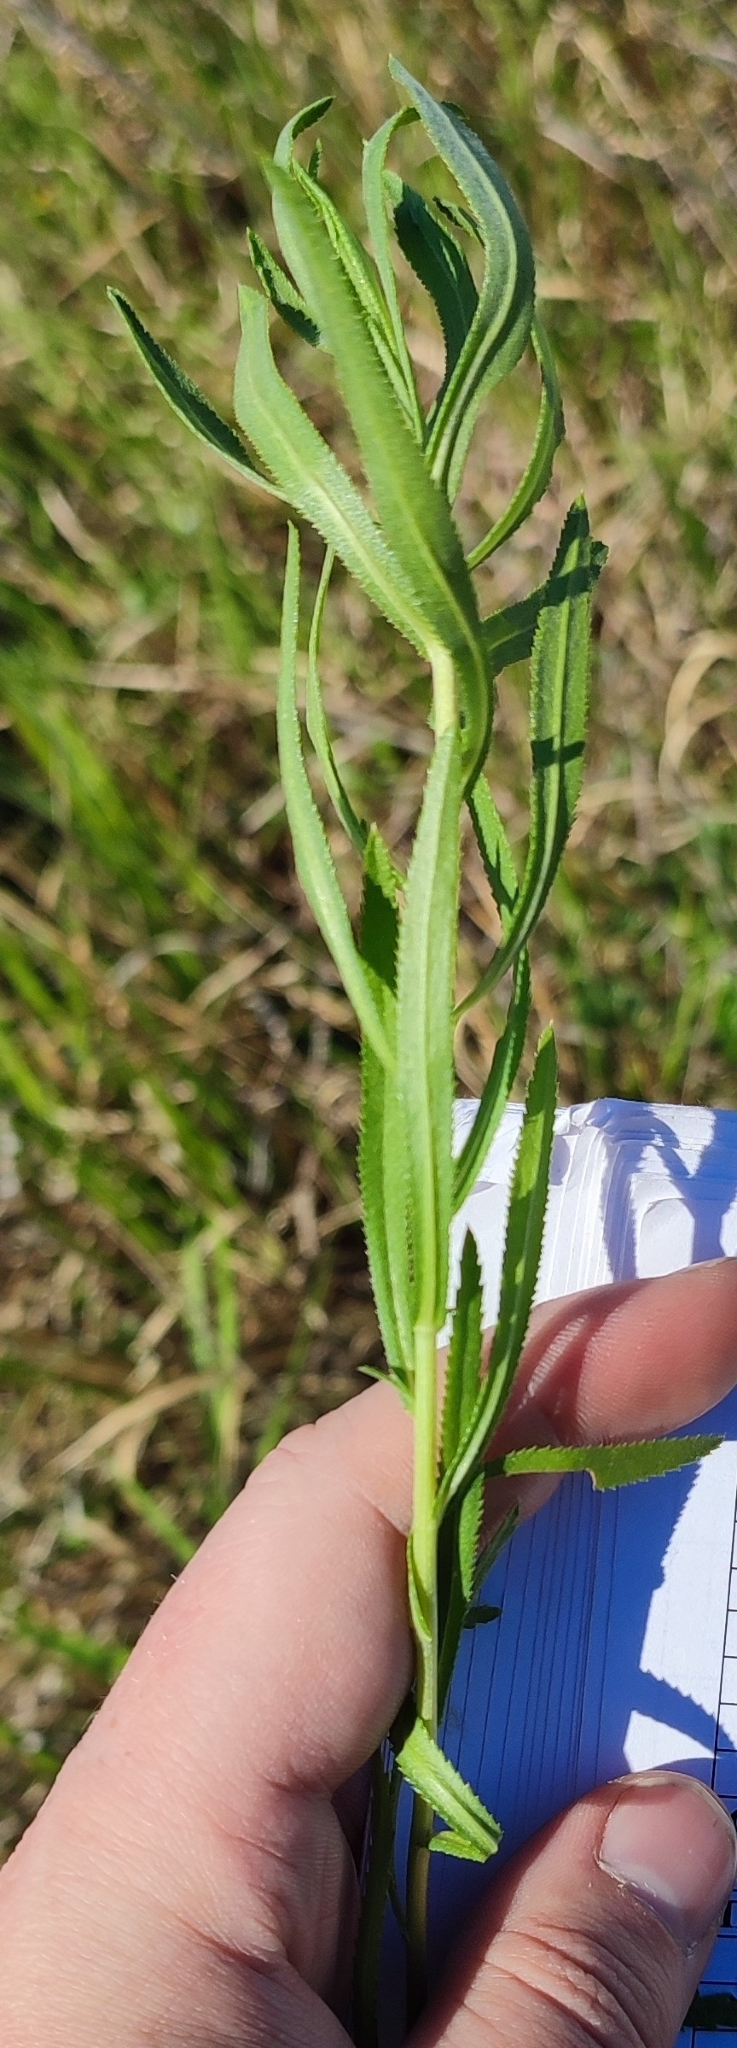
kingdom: Plantae
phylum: Tracheophyta
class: Magnoliopsida
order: Asterales
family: Asteraceae
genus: Achillea
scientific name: Achillea salicifolia
